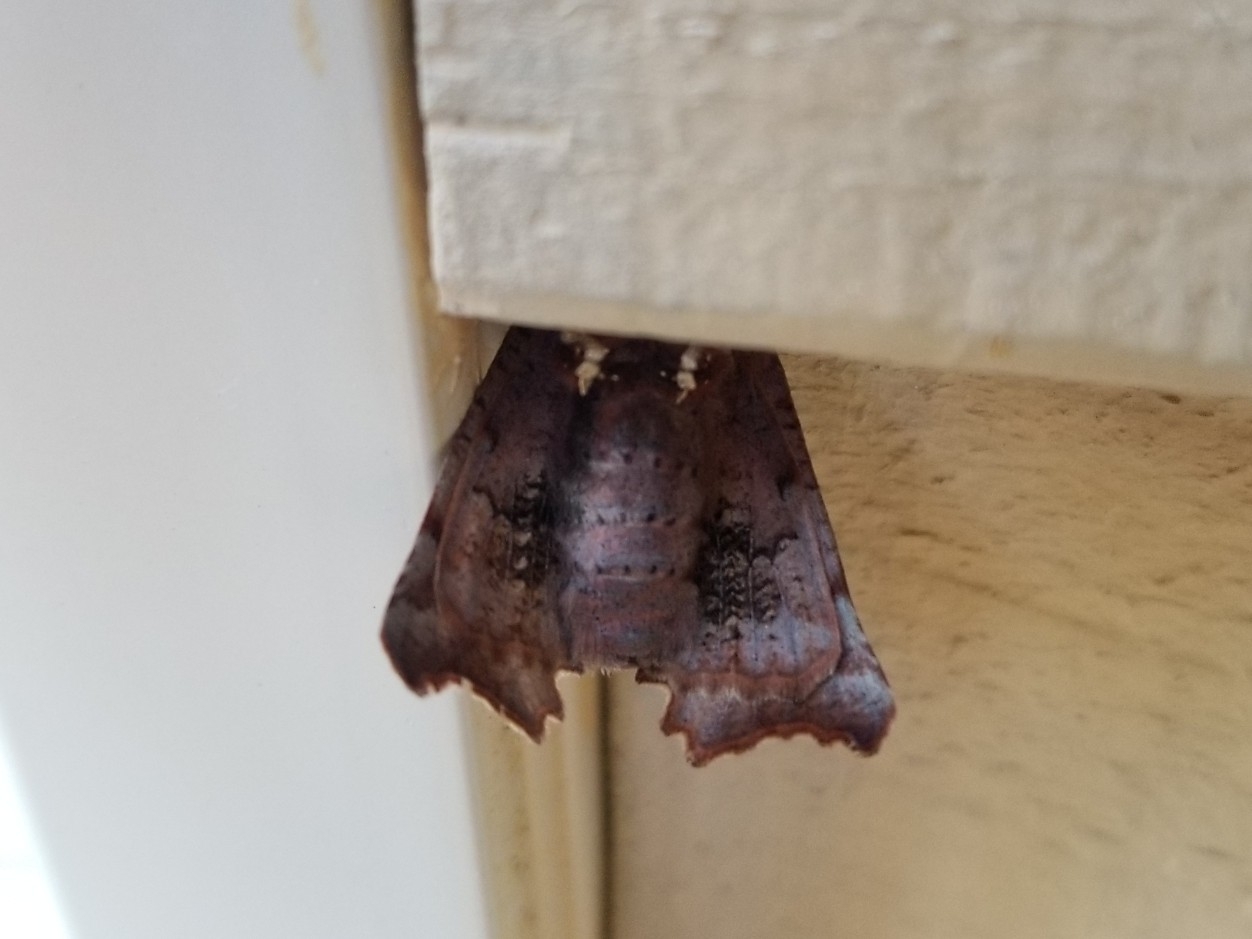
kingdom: Animalia
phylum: Arthropoda
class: Insecta
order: Lepidoptera
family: Erebidae
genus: Scoliopteryx
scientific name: Scoliopteryx libatrix
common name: Herald
